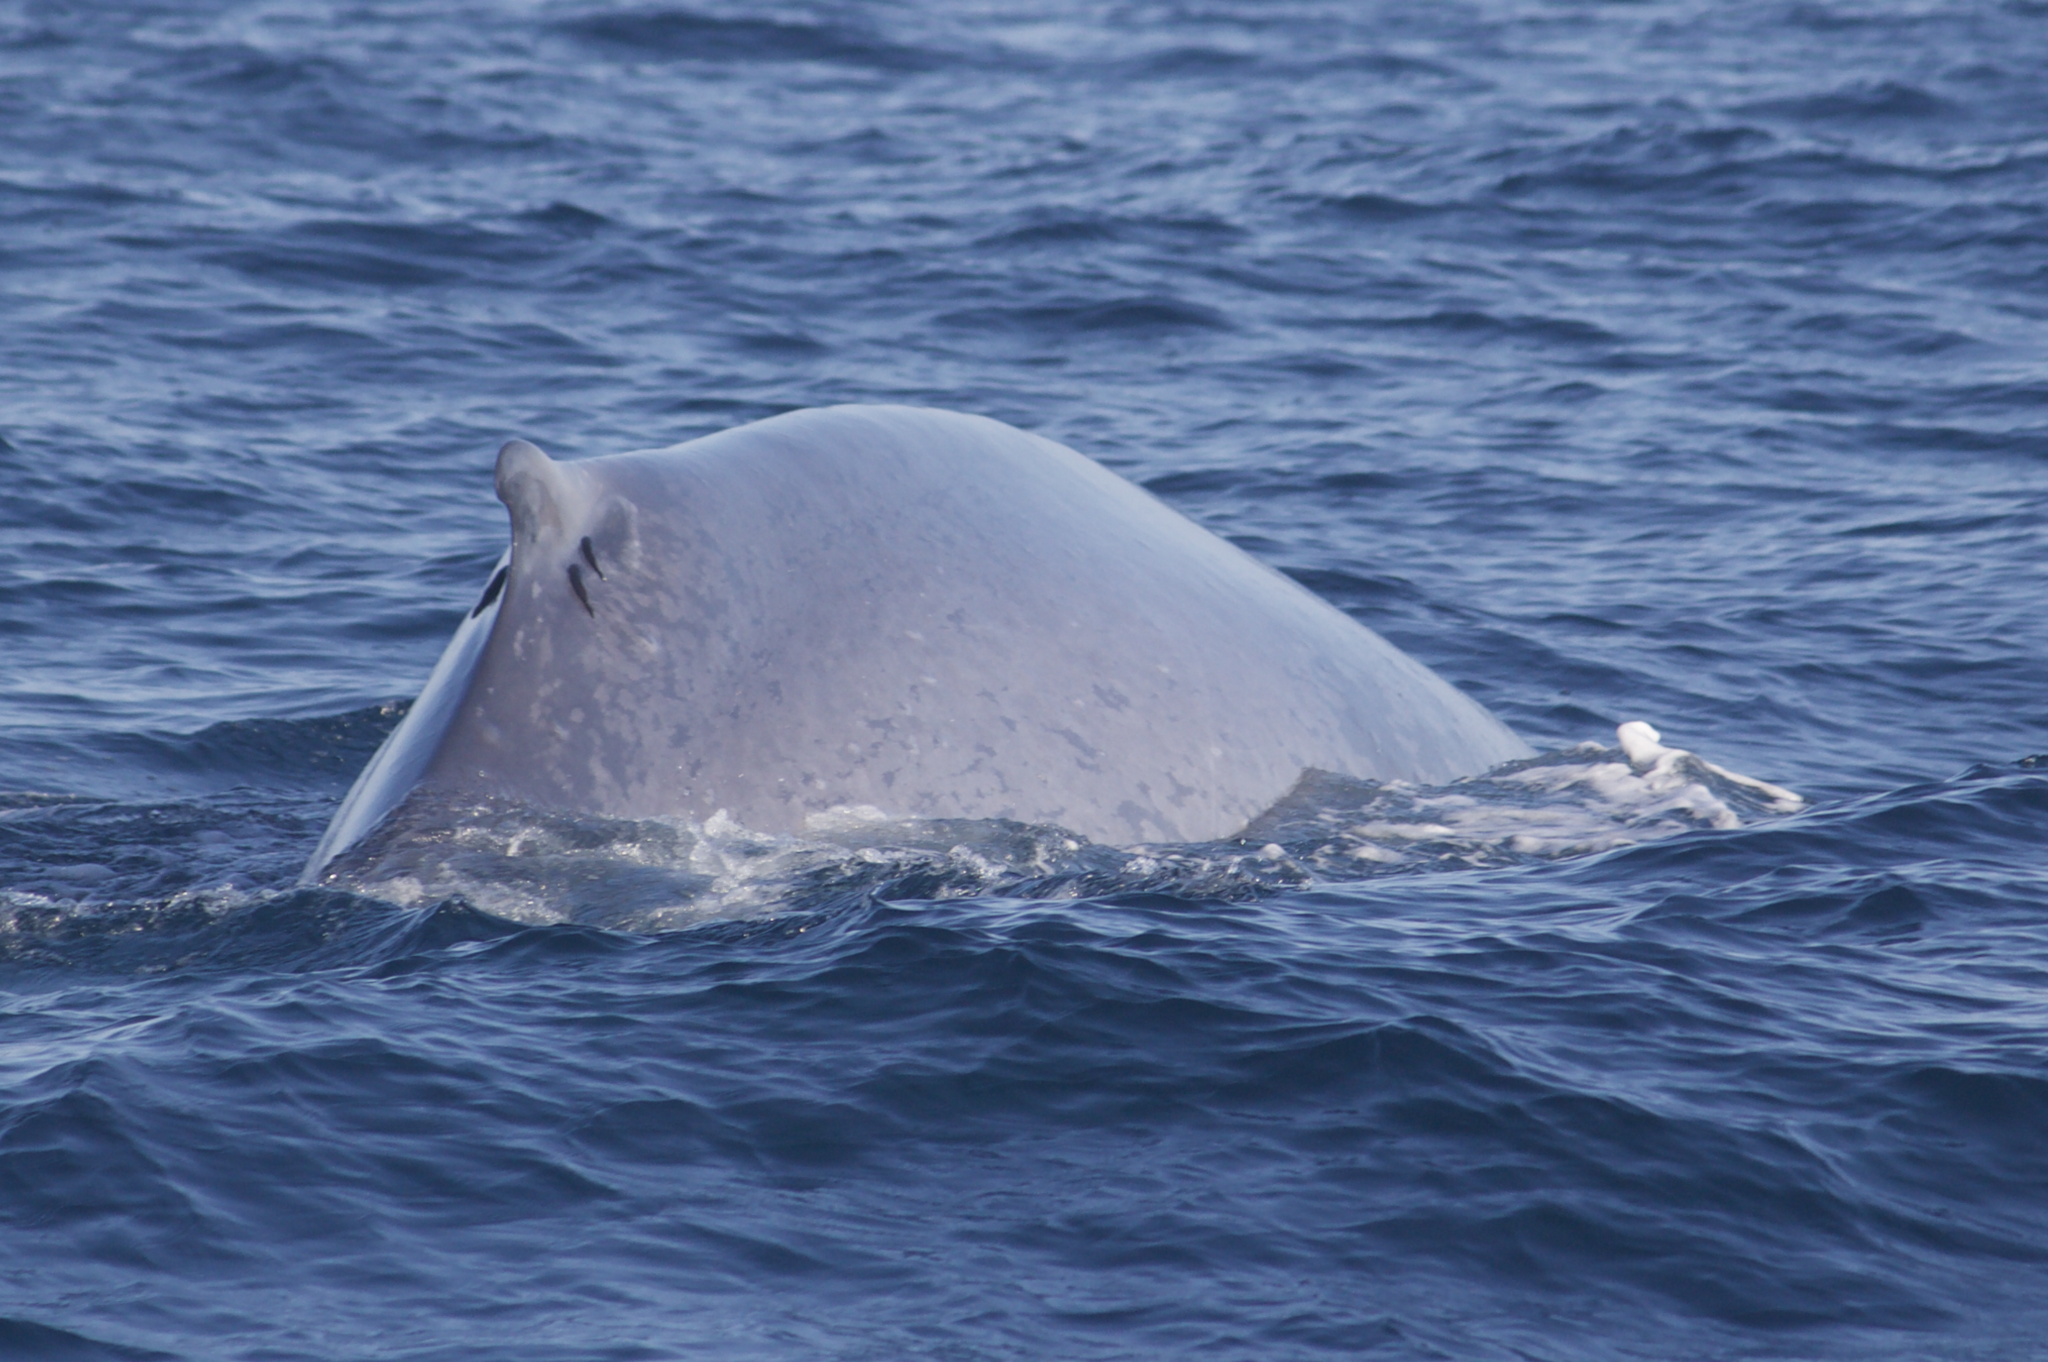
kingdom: Animalia
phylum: Chordata
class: Mammalia
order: Cetacea
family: Balaenopteridae
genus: Balaenoptera
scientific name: Balaenoptera musculus
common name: Blue whale
